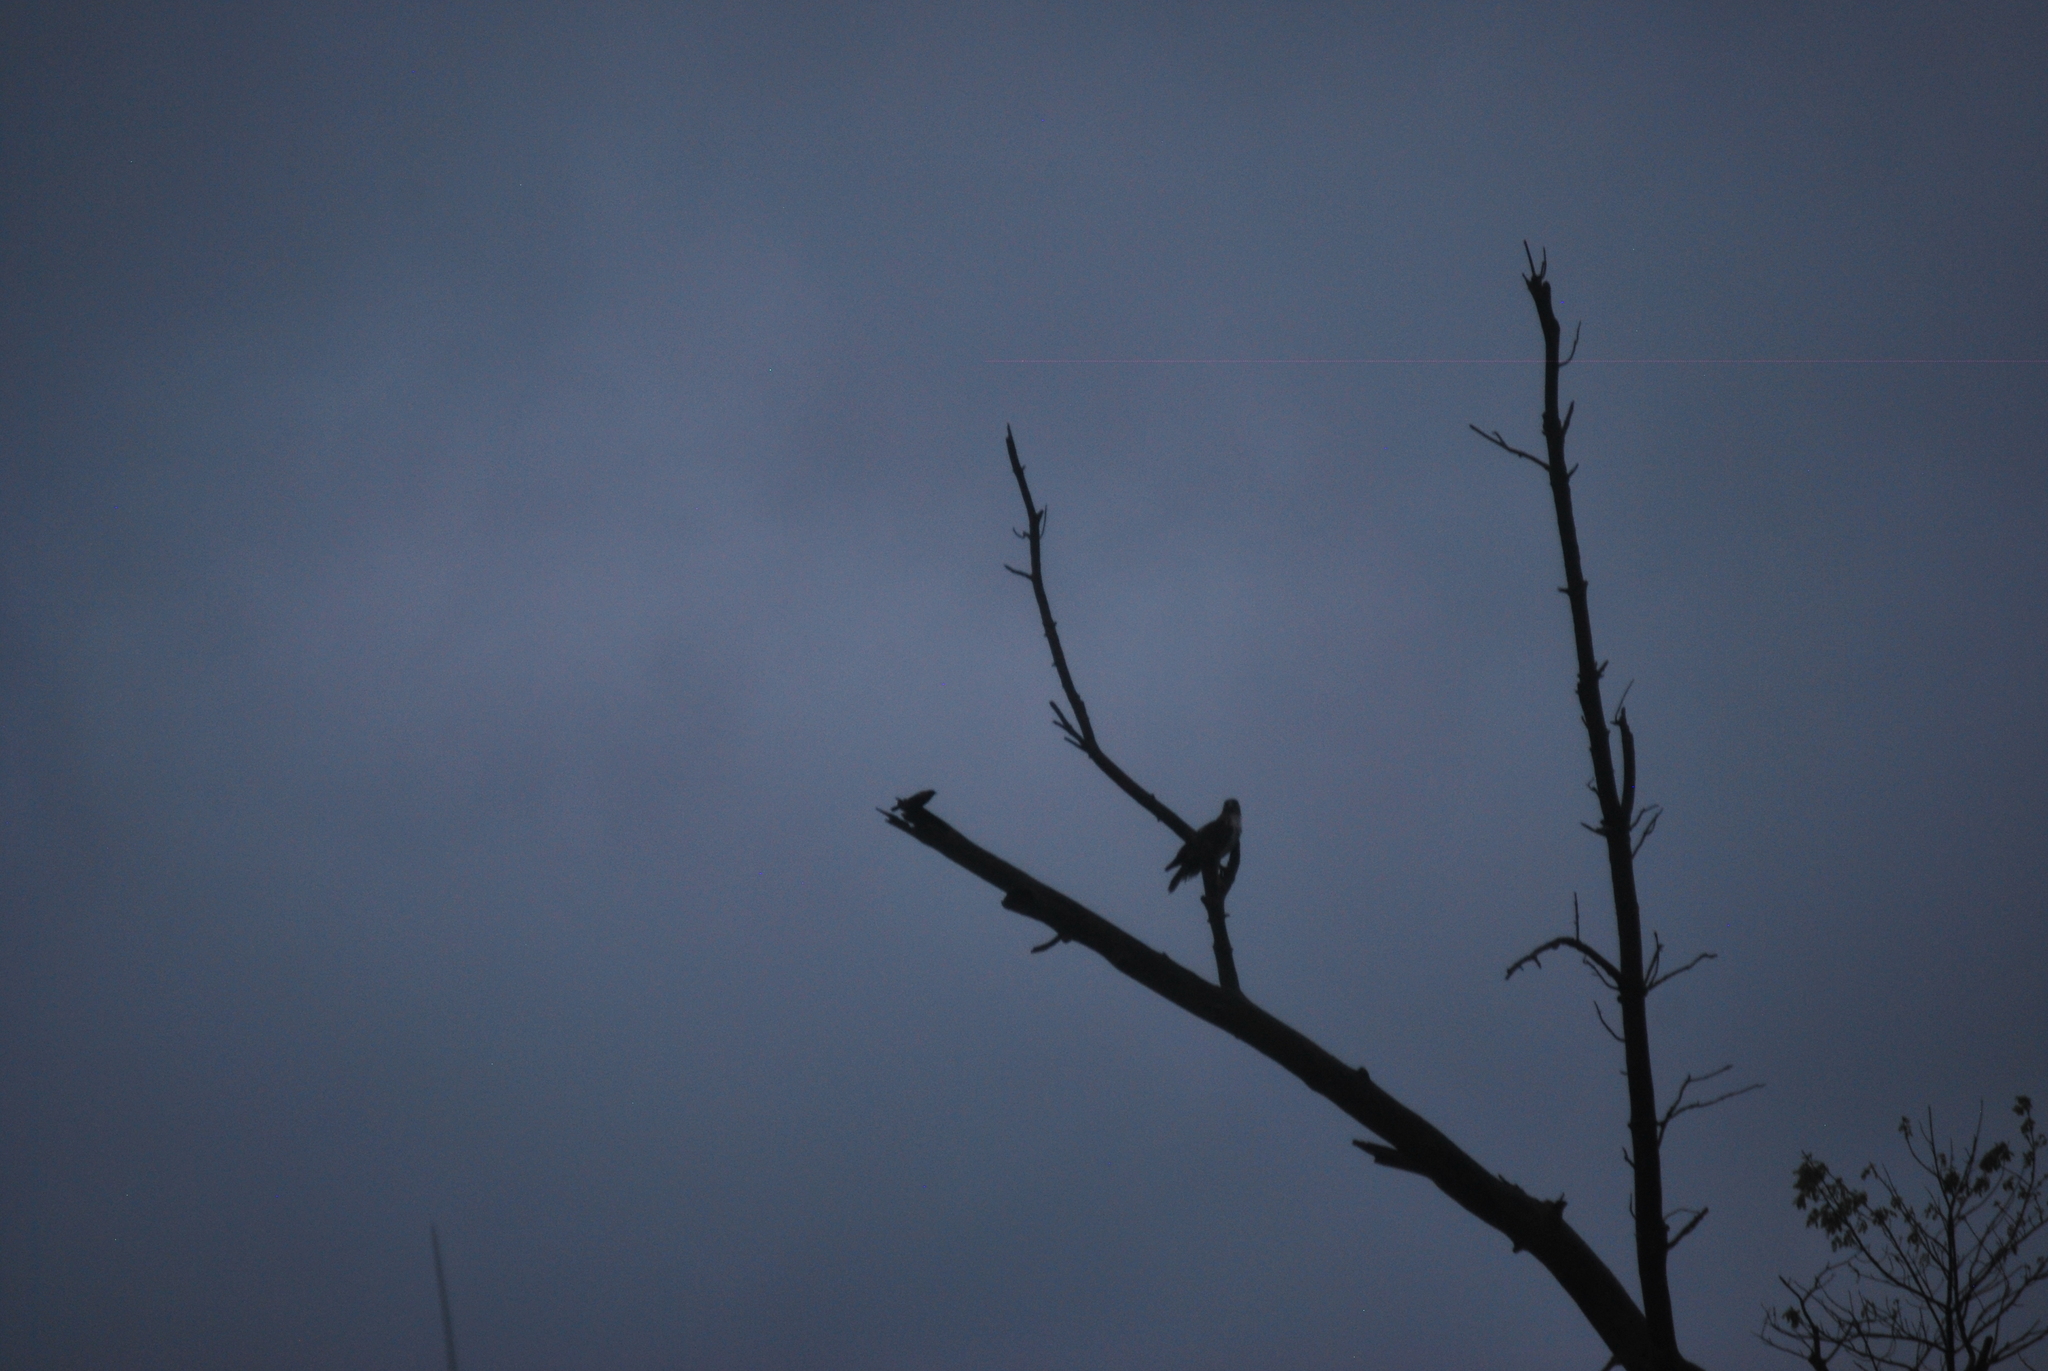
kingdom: Animalia
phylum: Chordata
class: Aves
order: Accipitriformes
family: Accipitridae
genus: Buteo
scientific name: Buteo jamaicensis
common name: Red-tailed hawk
